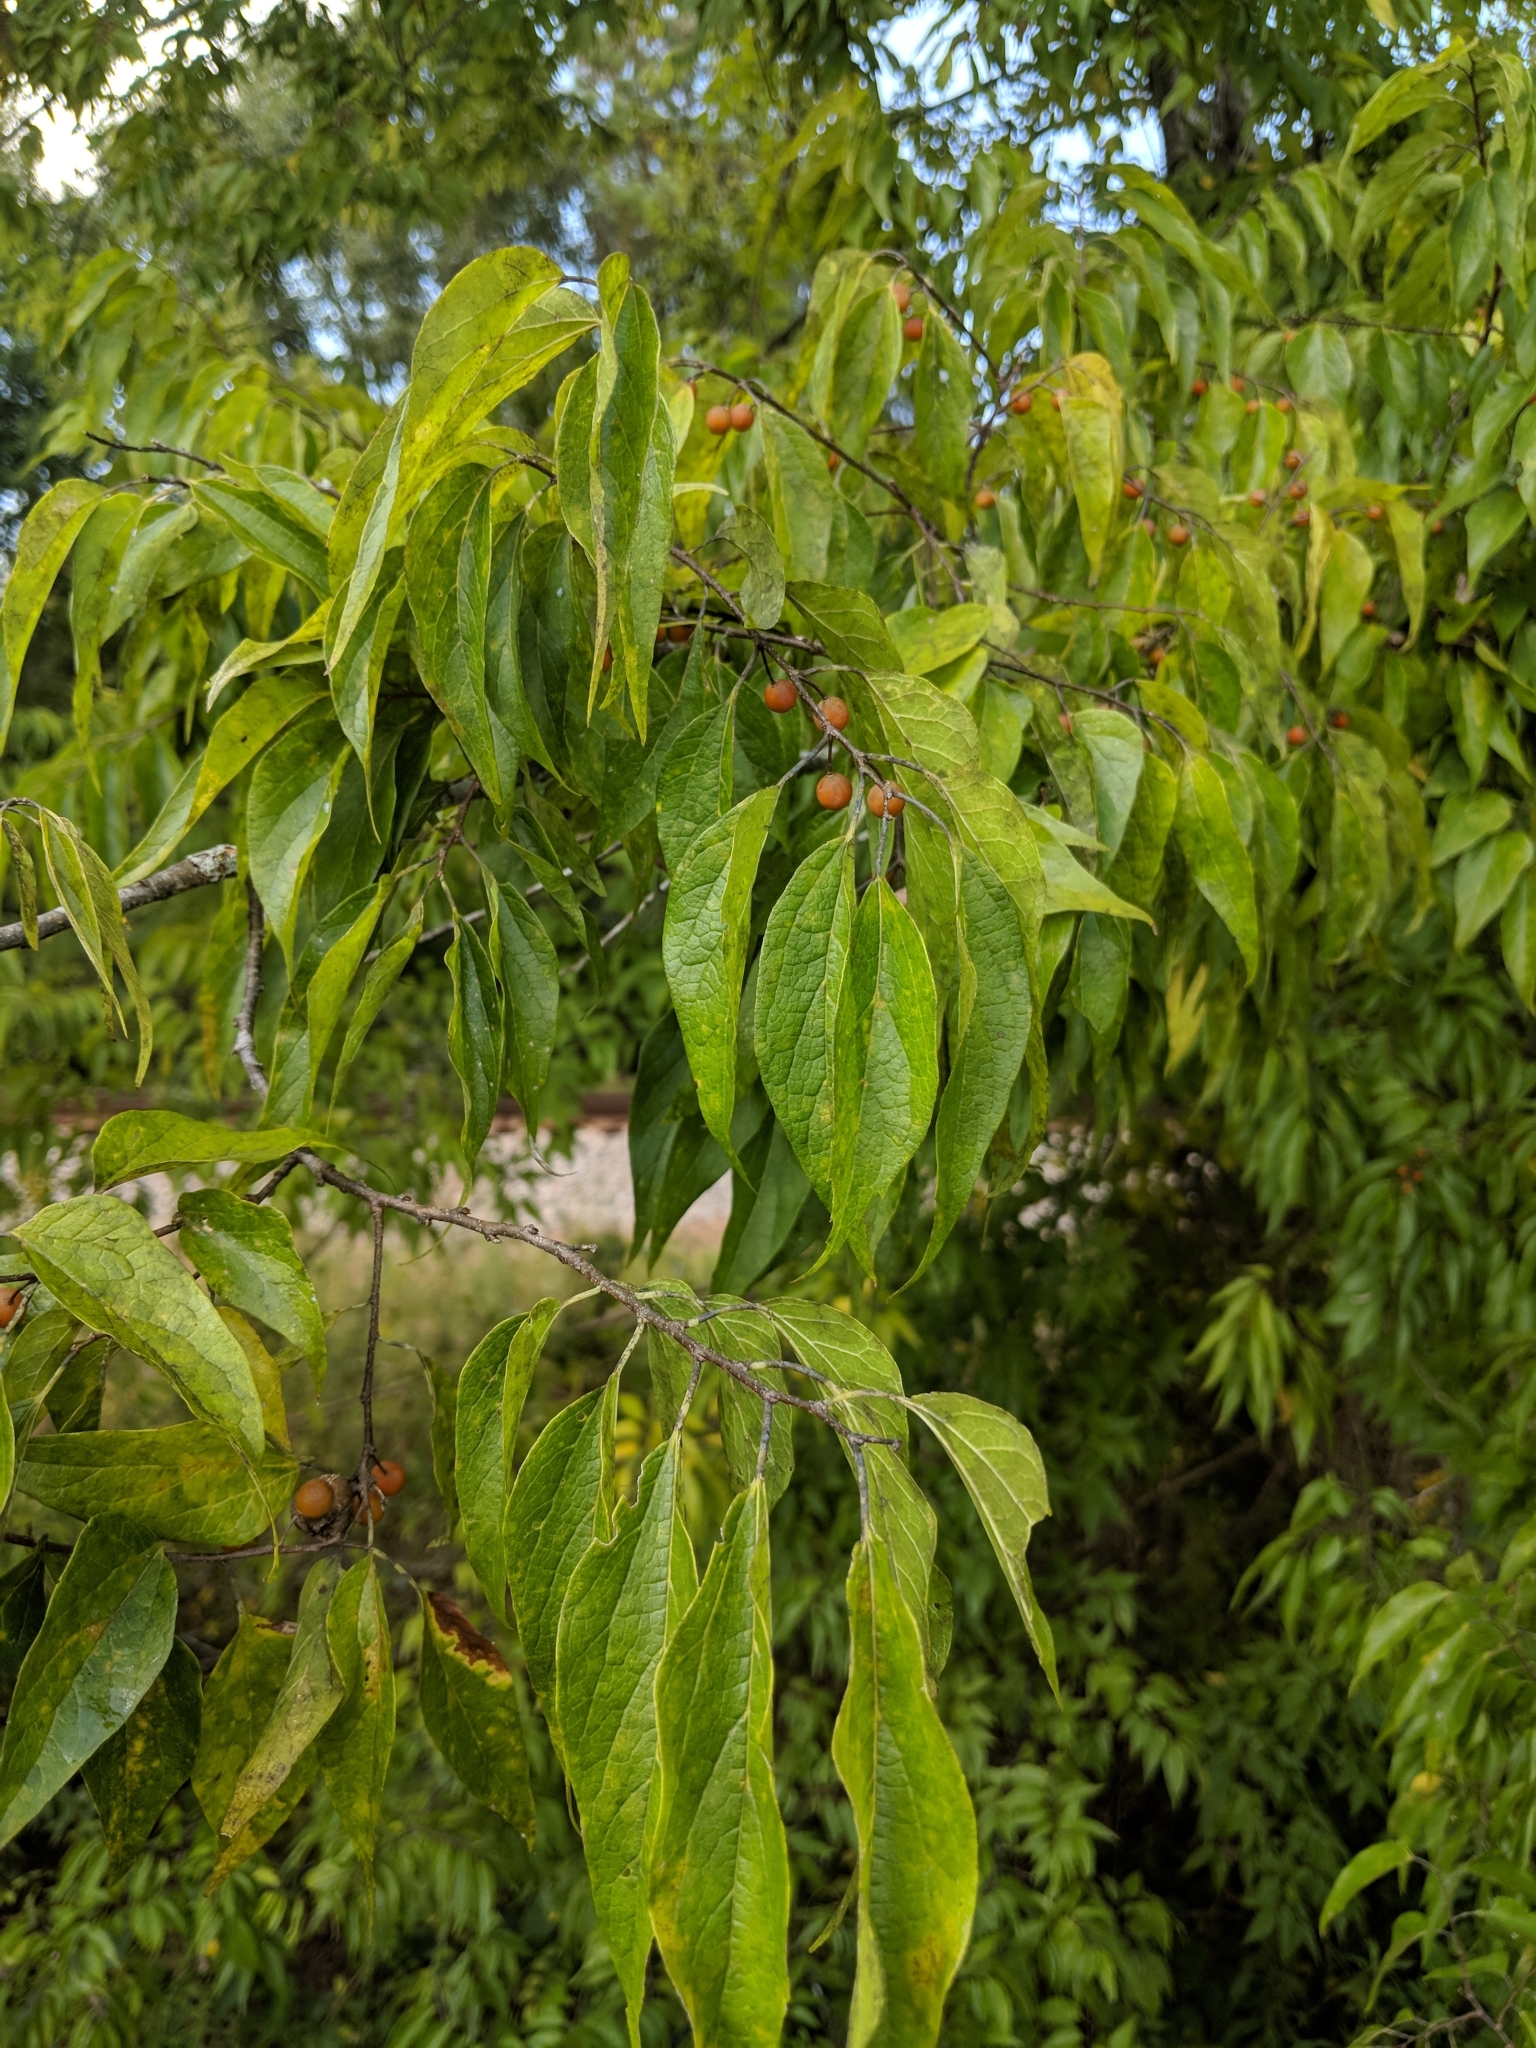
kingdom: Plantae
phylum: Tracheophyta
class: Magnoliopsida
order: Rosales
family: Cannabaceae
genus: Celtis
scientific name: Celtis laevigata
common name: Sugarberry
